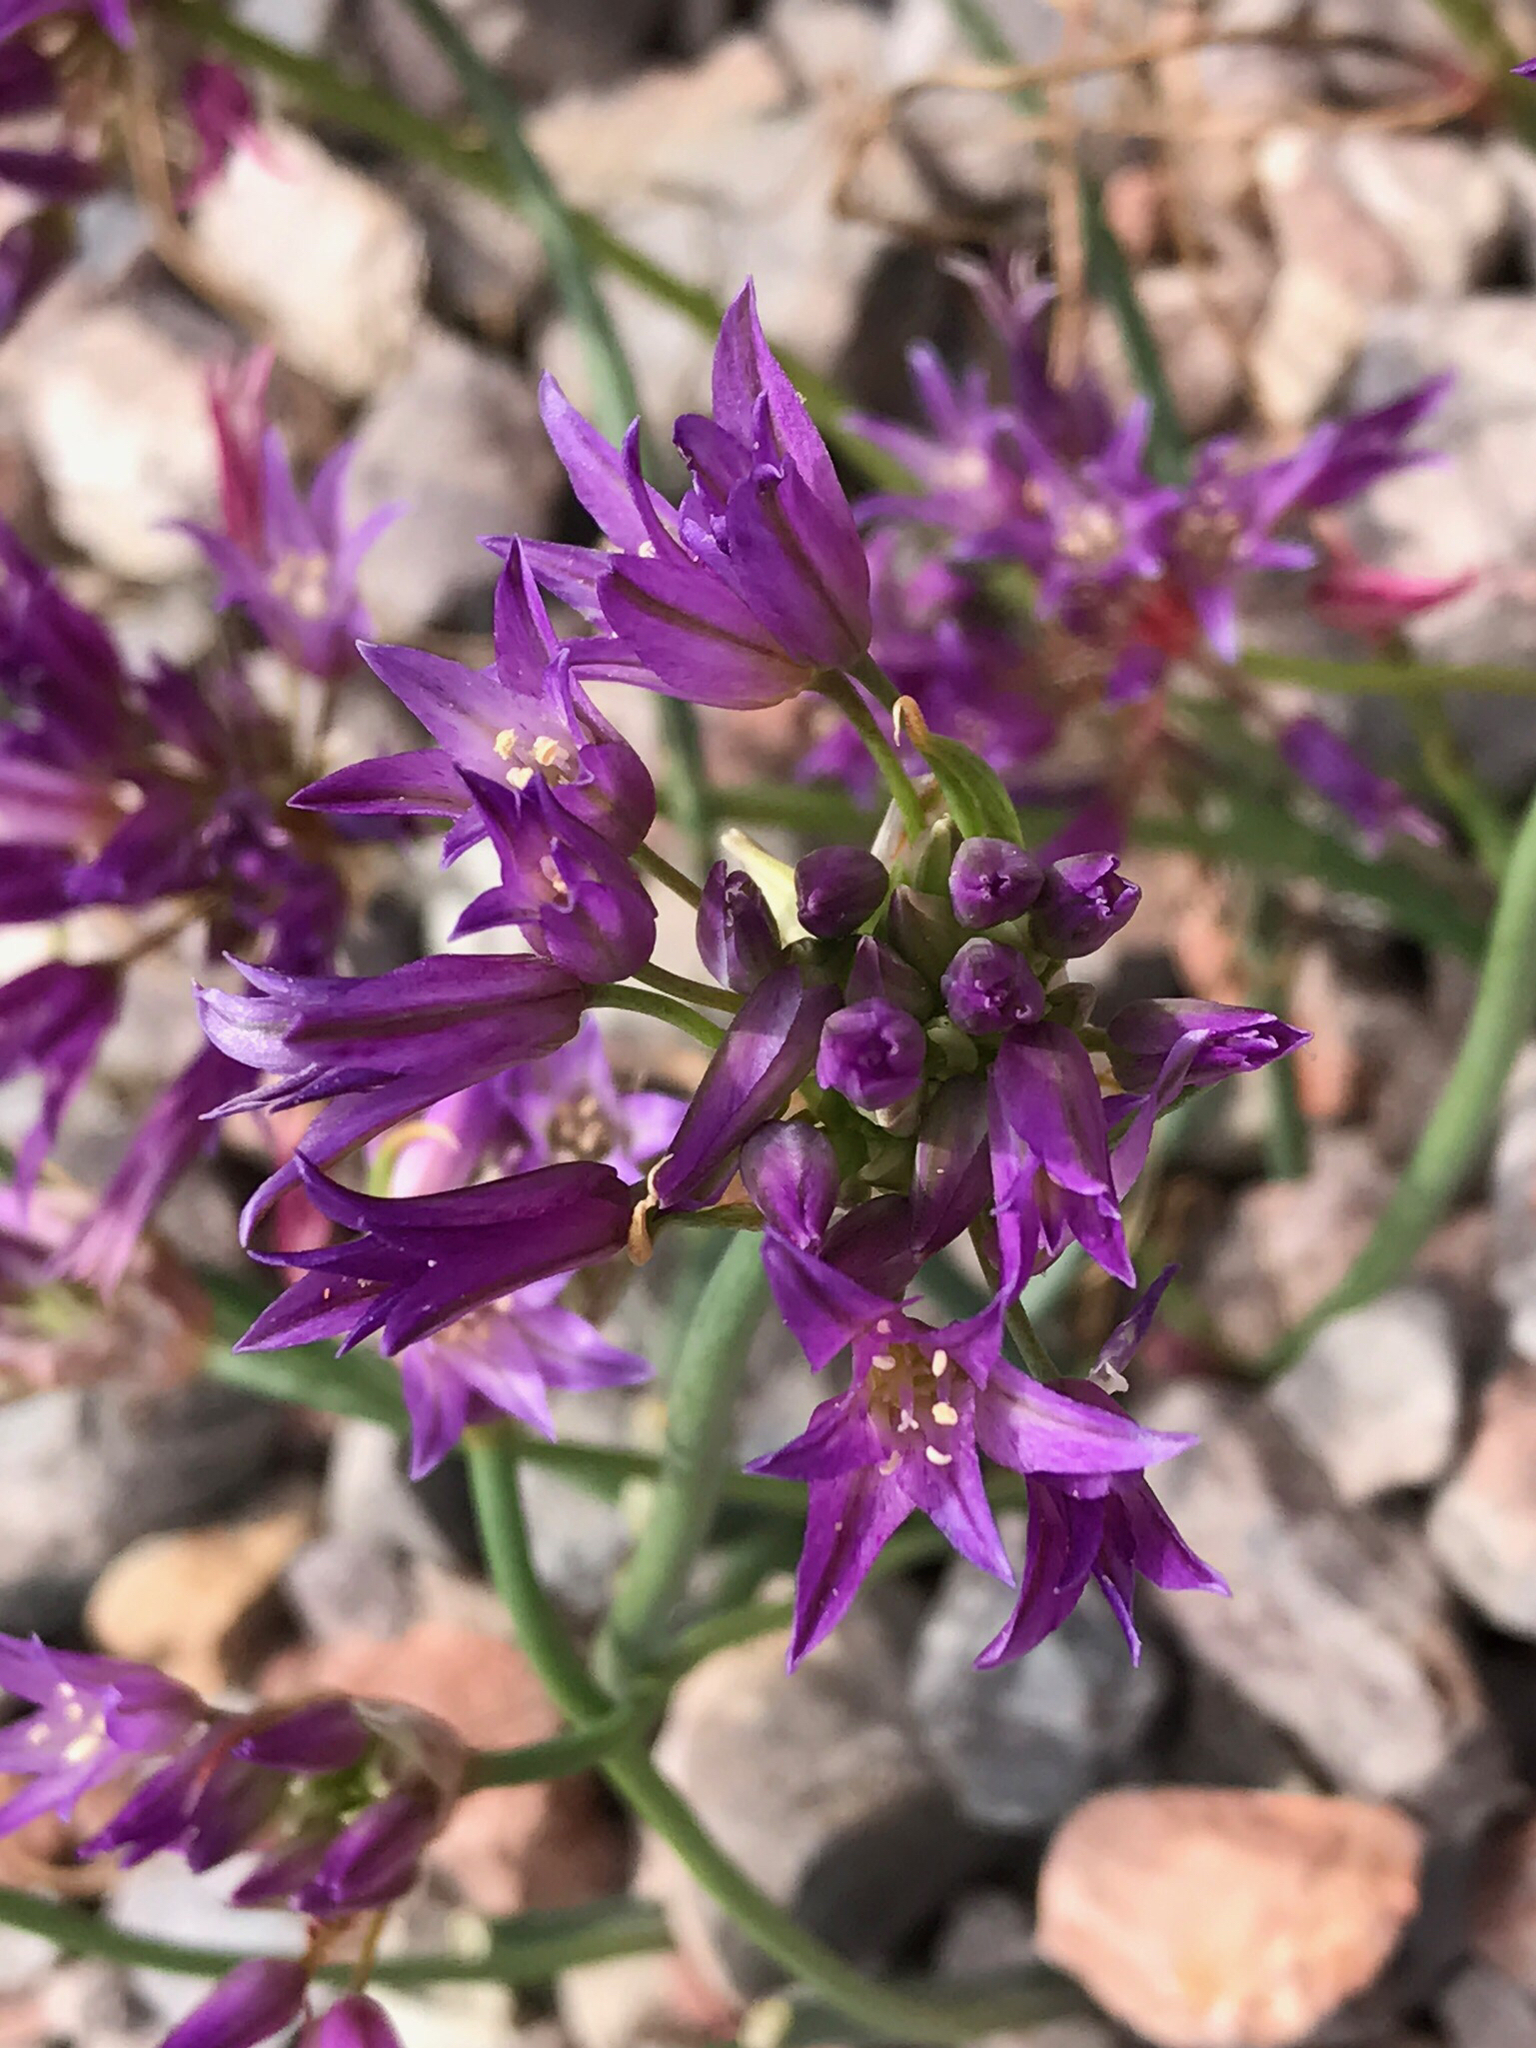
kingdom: Plantae
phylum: Tracheophyta
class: Liliopsida
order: Asparagales
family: Amaryllidaceae
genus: Allium
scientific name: Allium fimbriatum
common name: Fringed onion
